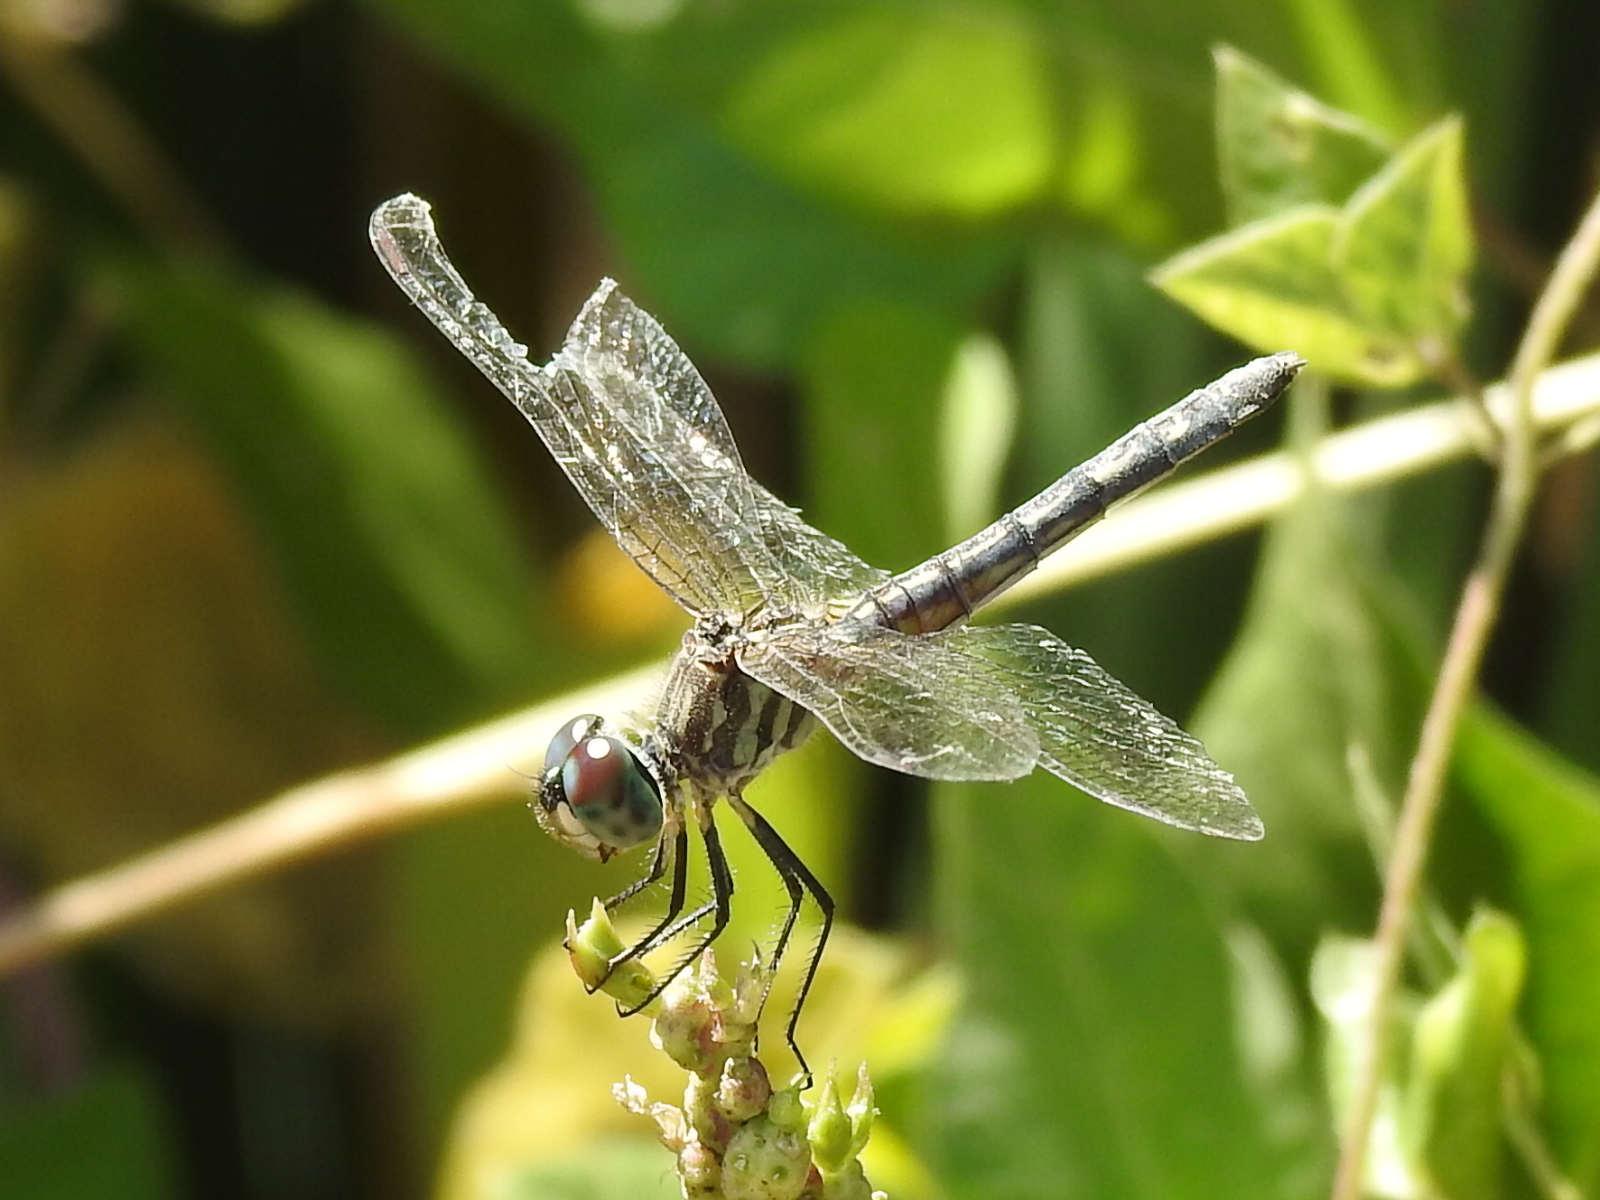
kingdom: Animalia
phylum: Arthropoda
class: Insecta
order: Odonata
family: Libellulidae
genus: Pachydiplax
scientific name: Pachydiplax longipennis
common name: Blue dasher
